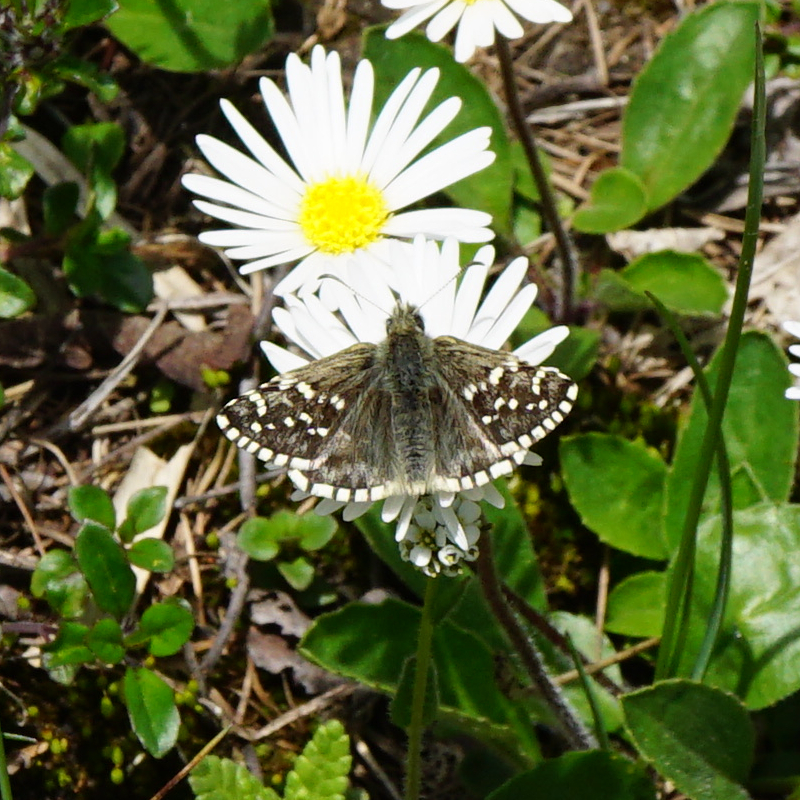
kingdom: Animalia
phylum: Arthropoda
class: Insecta
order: Lepidoptera
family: Hesperiidae
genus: Pyrgus
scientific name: Pyrgus andromedae
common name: Alpine grizzled skipper
